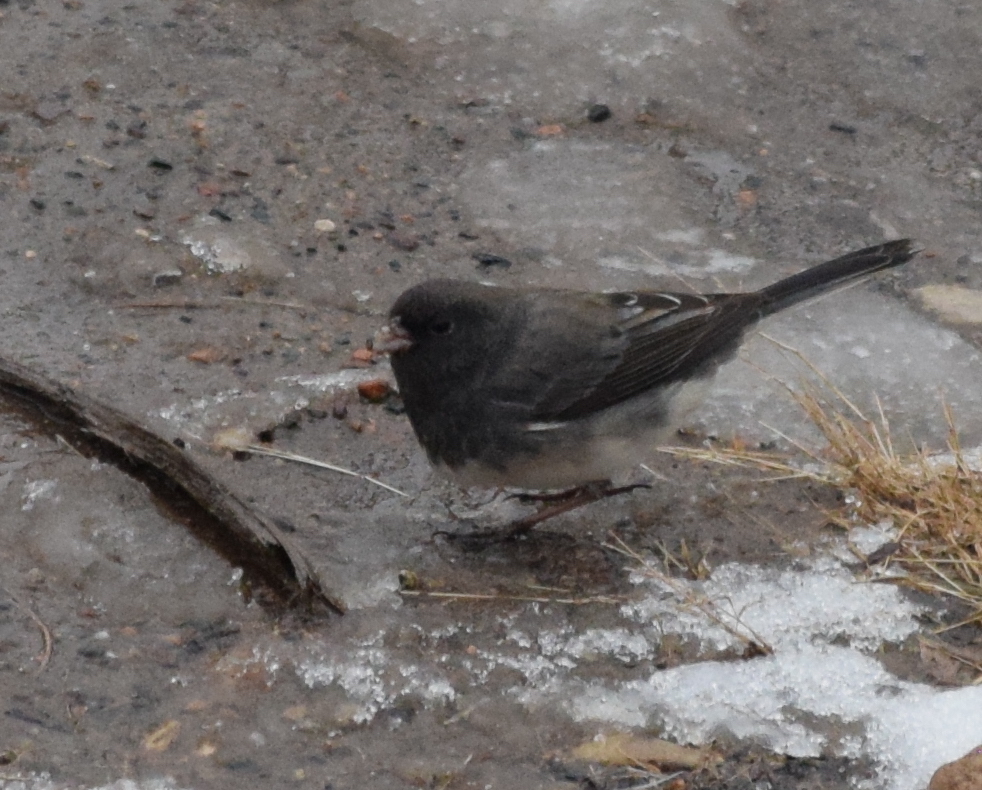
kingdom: Animalia
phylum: Chordata
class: Aves
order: Passeriformes
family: Passerellidae
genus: Junco
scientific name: Junco hyemalis
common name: Dark-eyed junco
